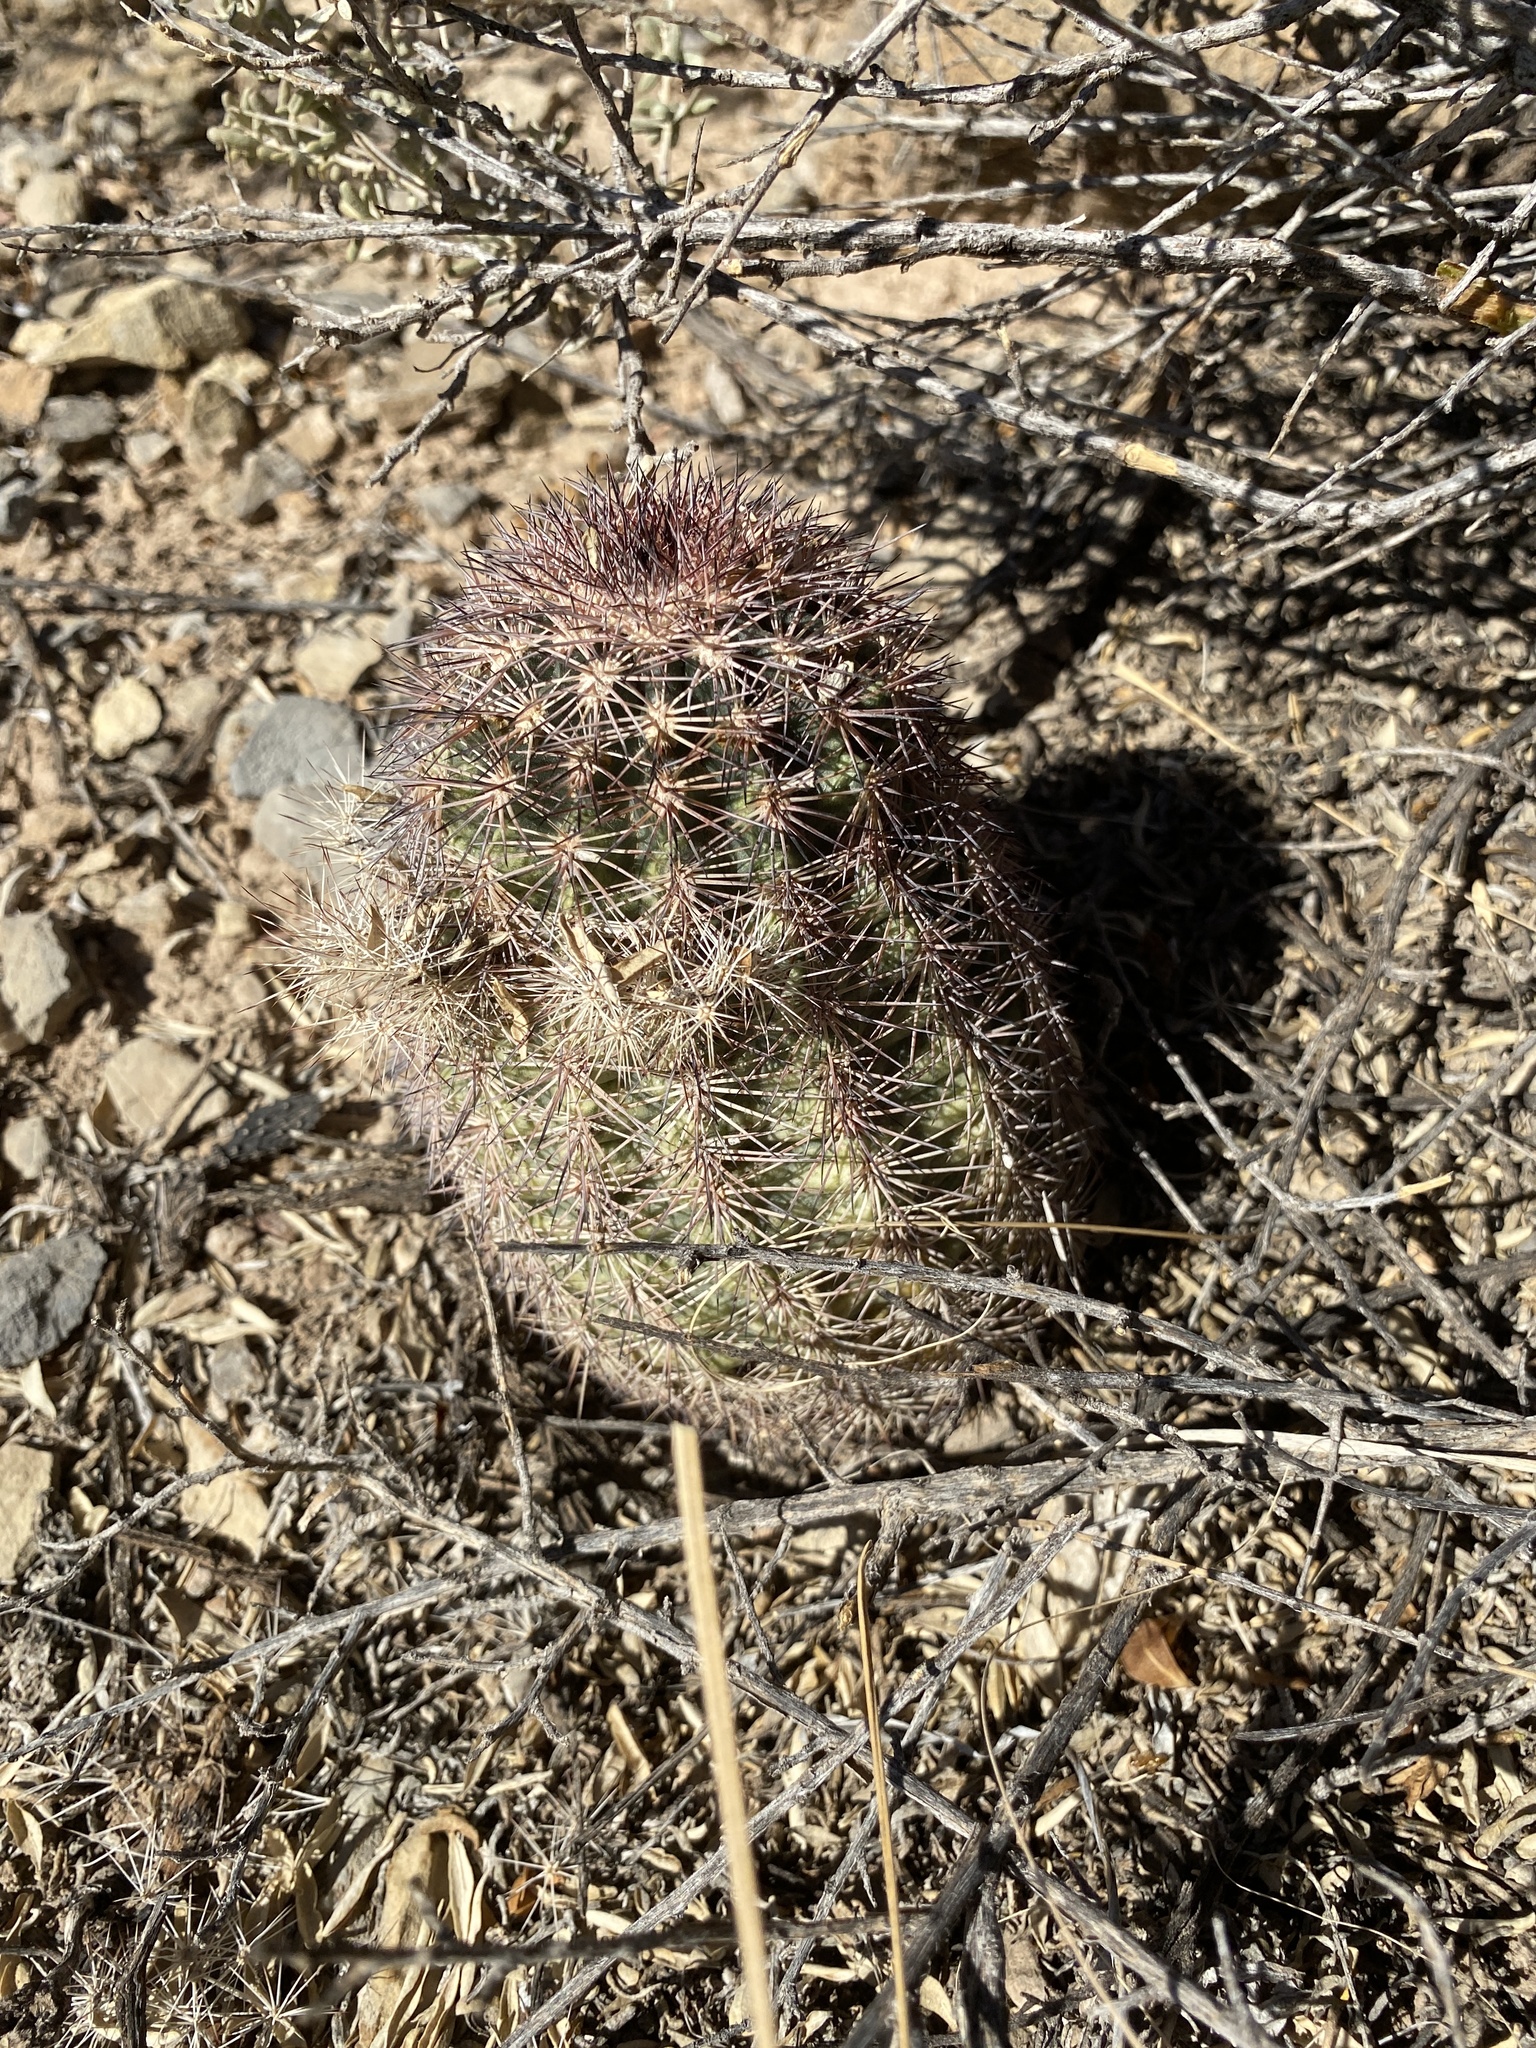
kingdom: Plantae
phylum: Tracheophyta
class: Magnoliopsida
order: Caryophyllales
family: Cactaceae
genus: Echinocereus
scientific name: Echinocereus dasyacanthus
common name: Spiny hedgehog cactus
